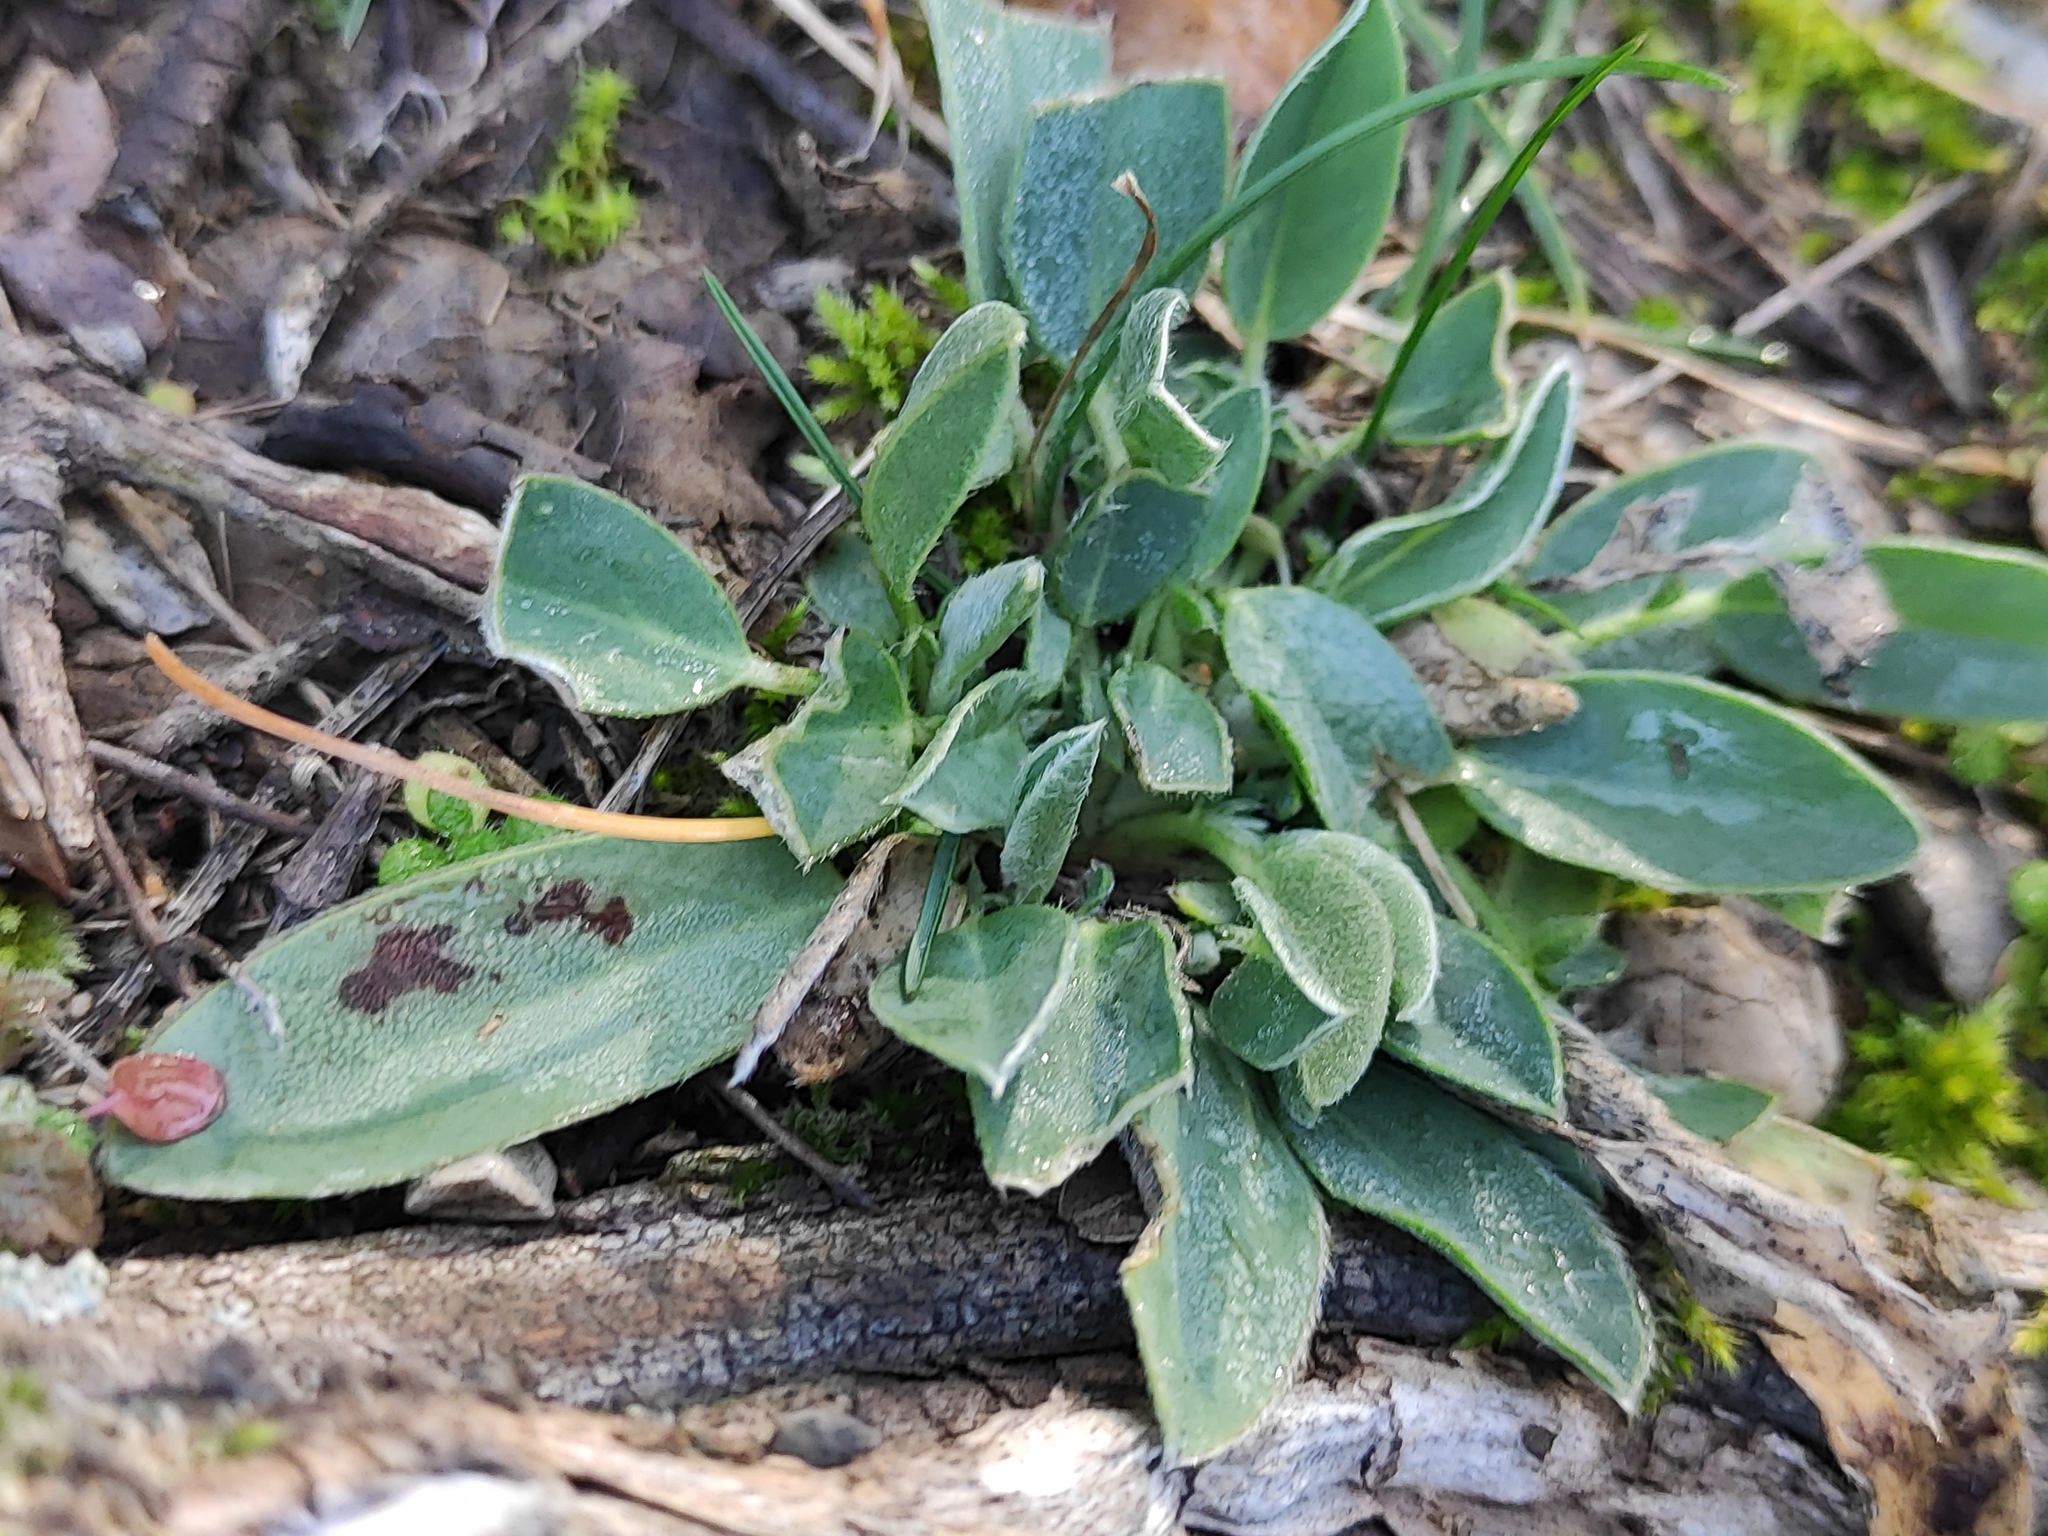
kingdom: Plantae
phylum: Tracheophyta
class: Magnoliopsida
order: Fabales
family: Fabaceae
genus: Anthyllis
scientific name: Anthyllis vulneraria
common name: Kidney vetch
